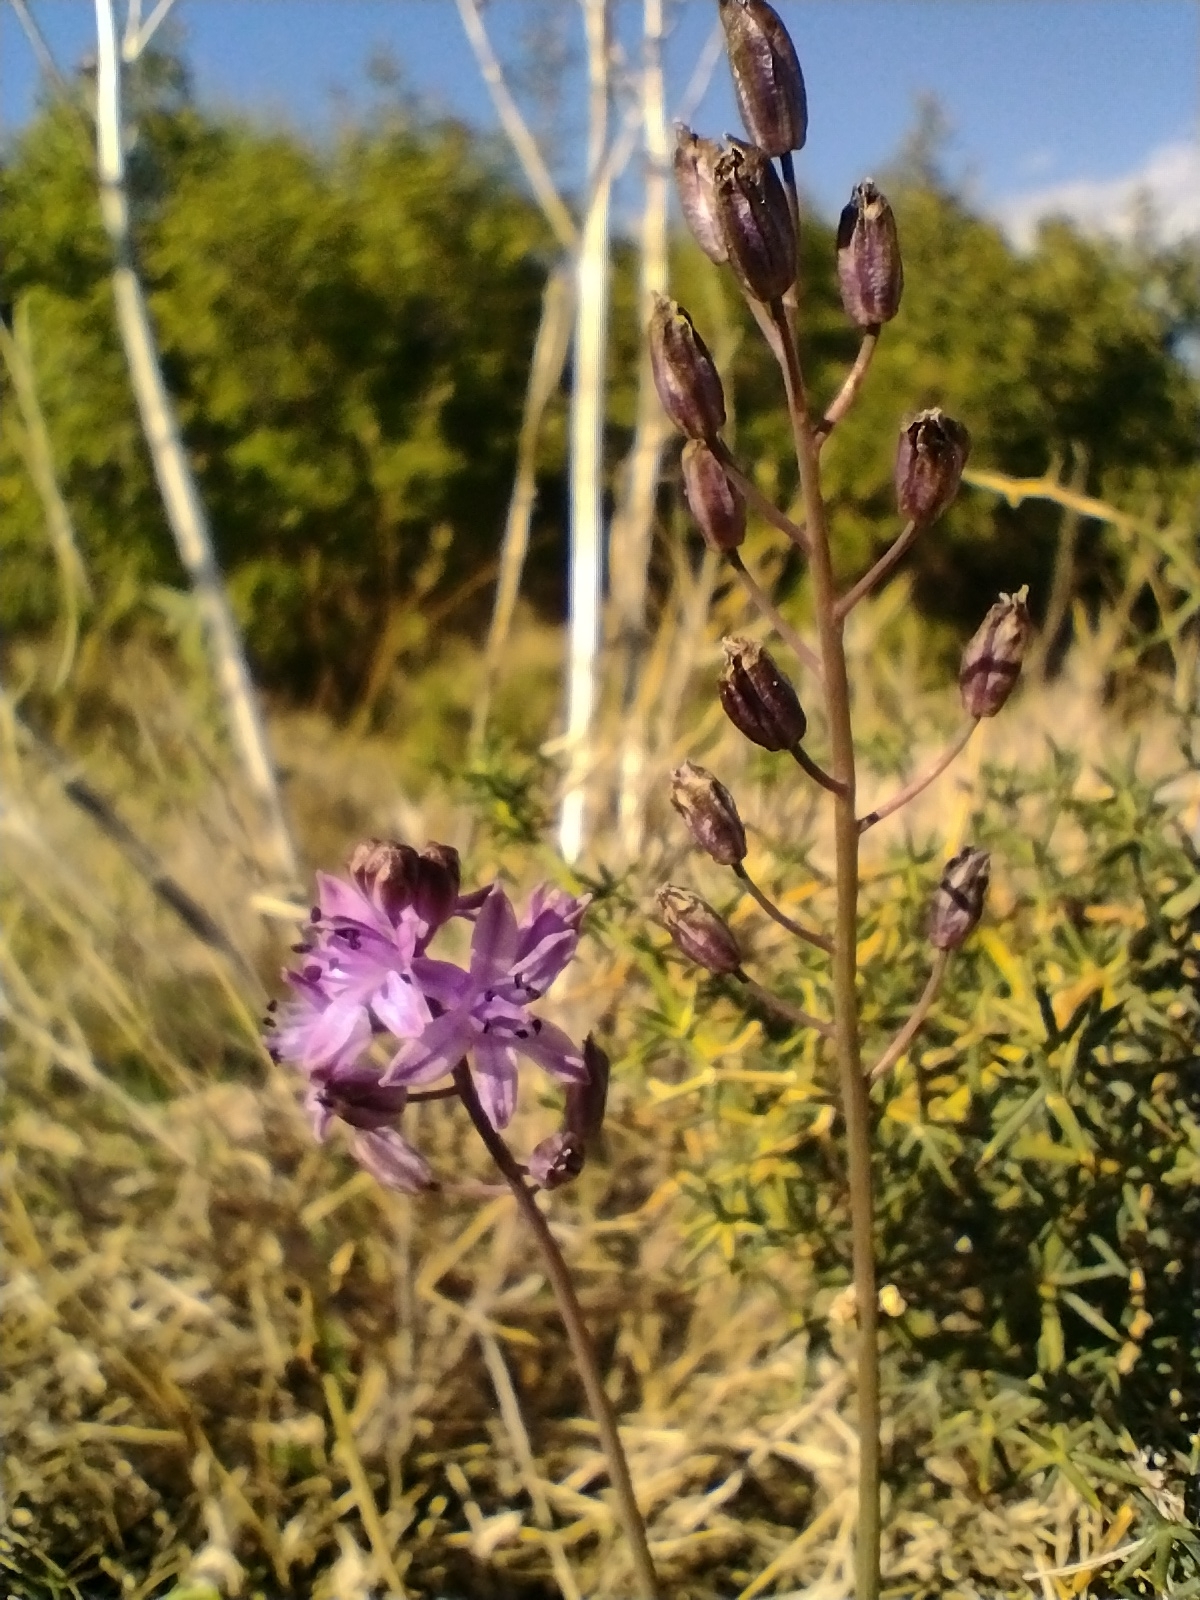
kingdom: Plantae
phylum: Tracheophyta
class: Liliopsida
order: Asparagales
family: Asparagaceae
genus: Prospero
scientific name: Prospero autumnale
